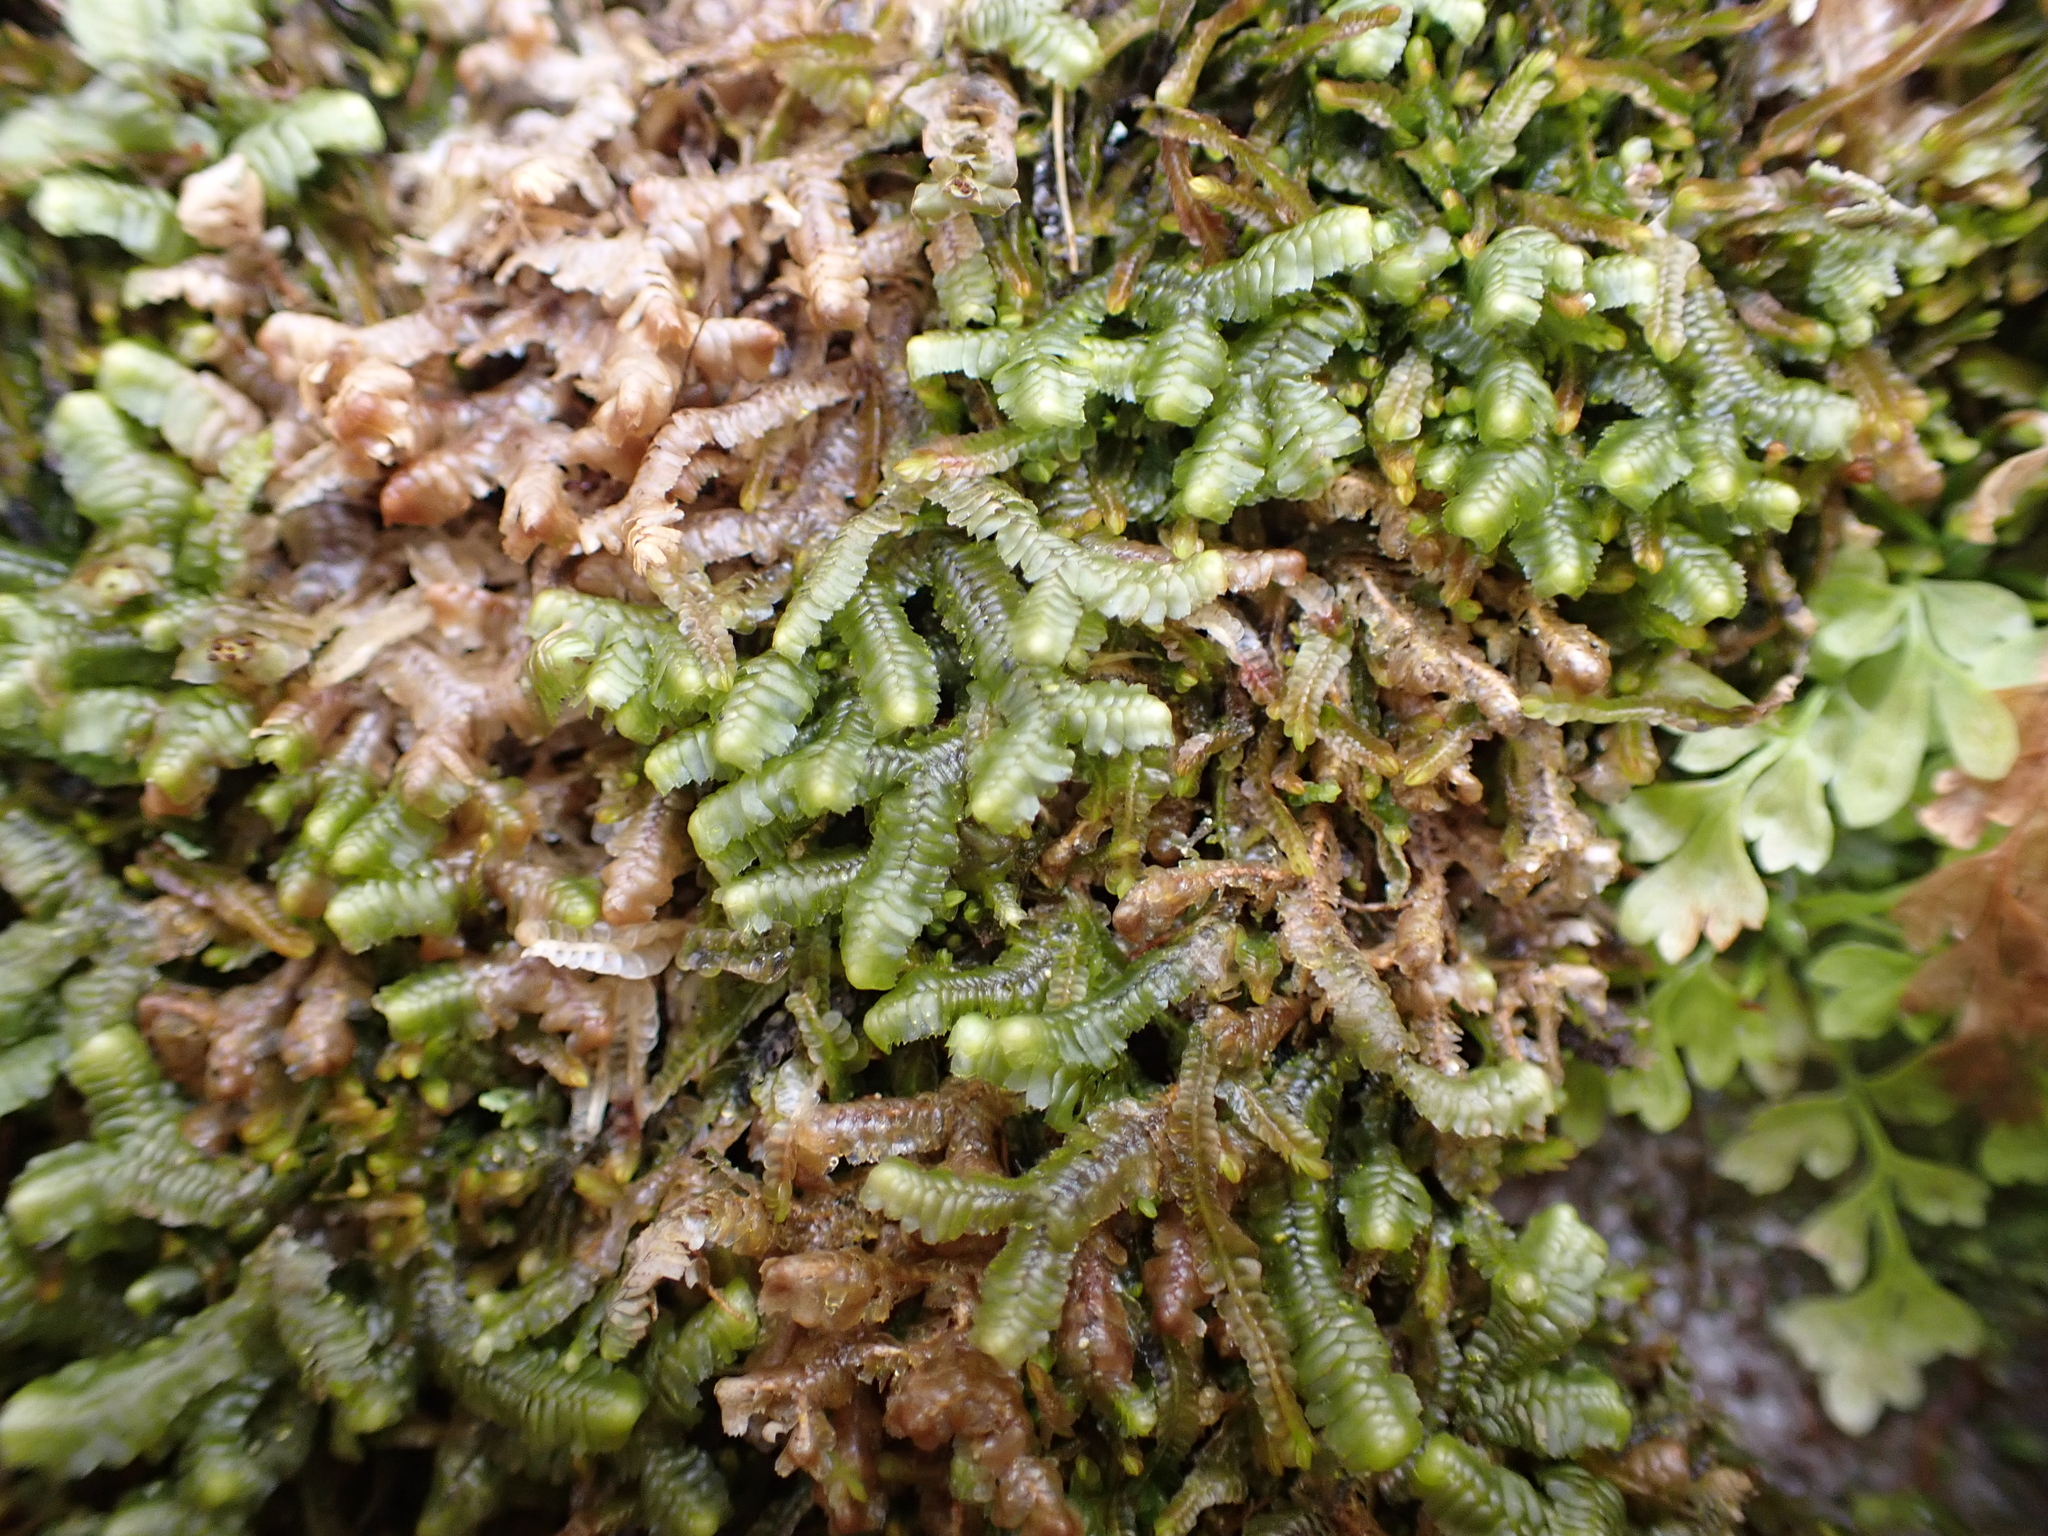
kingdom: Plantae
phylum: Marchantiophyta
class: Jungermanniopsida
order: Jungermanniales
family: Lepidoziaceae
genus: Bazzania
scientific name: Bazzania trilobata
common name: Three-lobed whipwort
